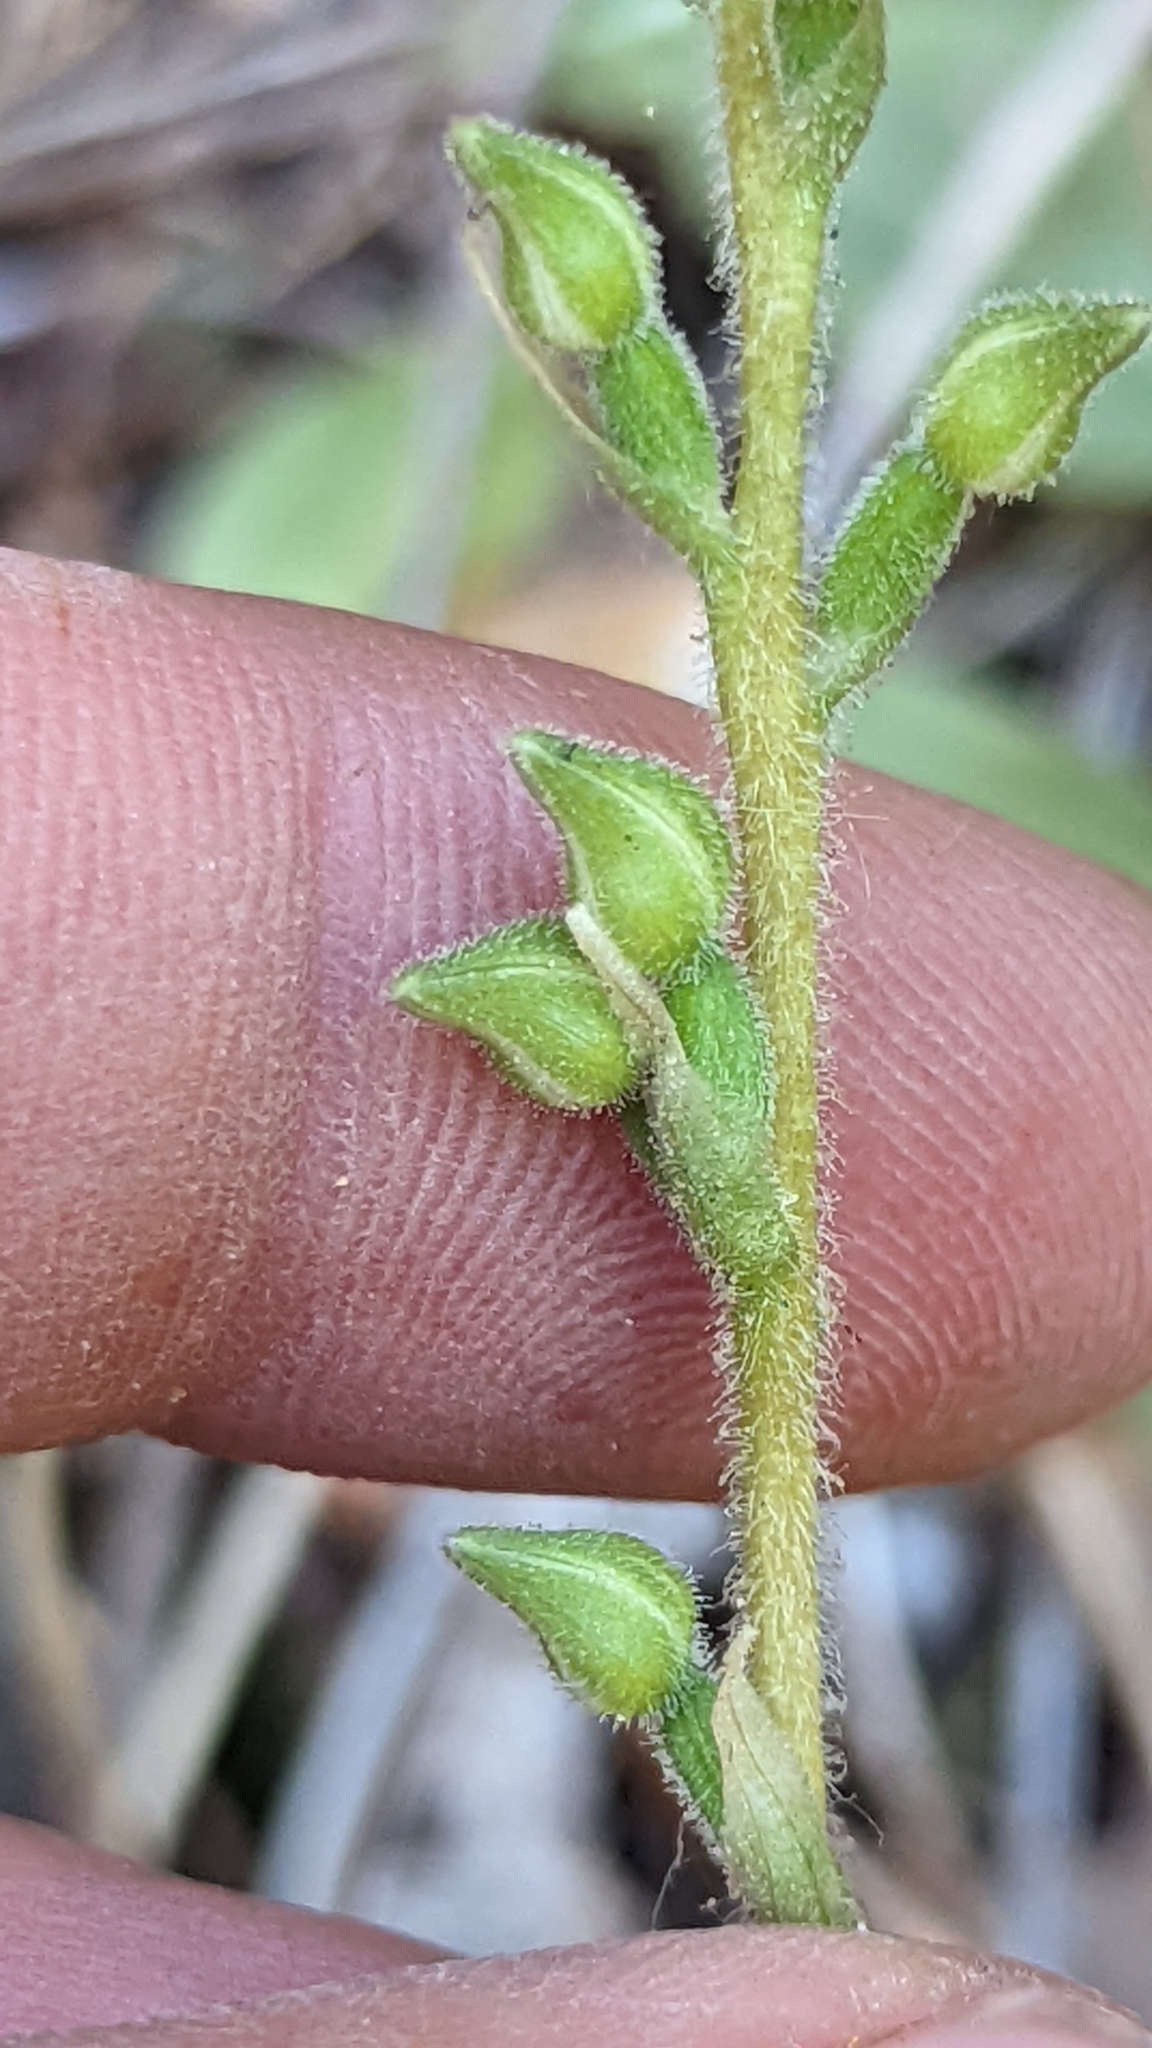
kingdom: Plantae
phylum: Tracheophyta
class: Liliopsida
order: Asparagales
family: Orchidaceae
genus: Goodyera
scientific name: Goodyera oblongifolia
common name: Giant rattlesnake-plantain
